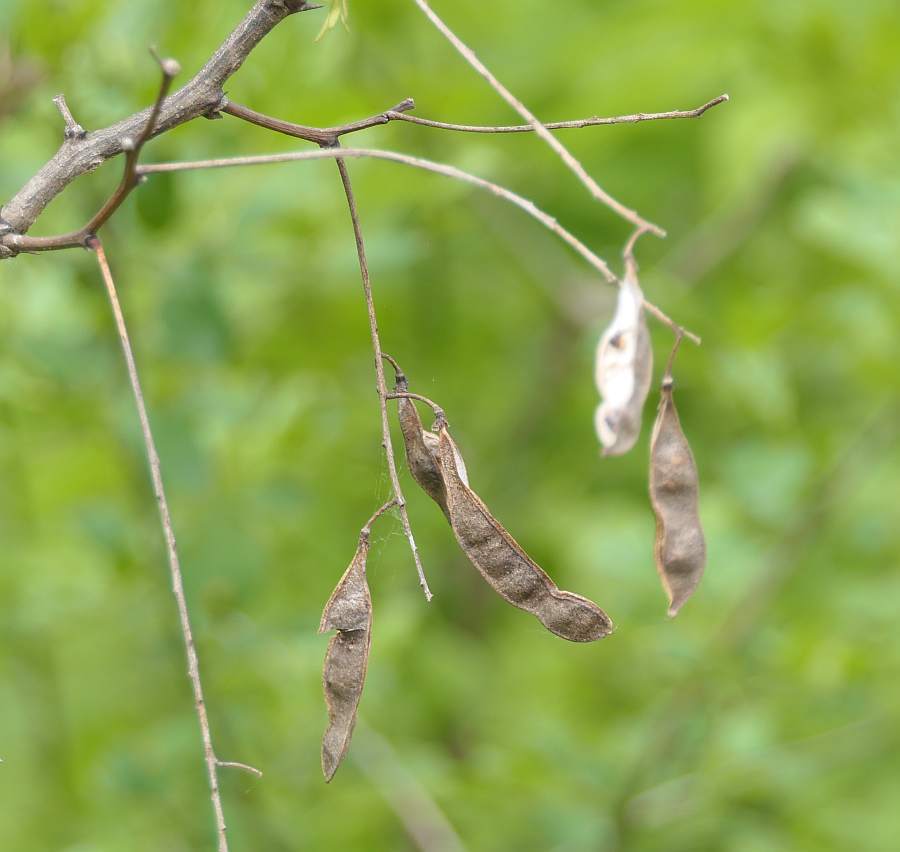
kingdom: Plantae
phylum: Tracheophyta
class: Magnoliopsida
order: Fabales
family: Fabaceae
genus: Robinia
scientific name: Robinia pseudoacacia
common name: Black locust
